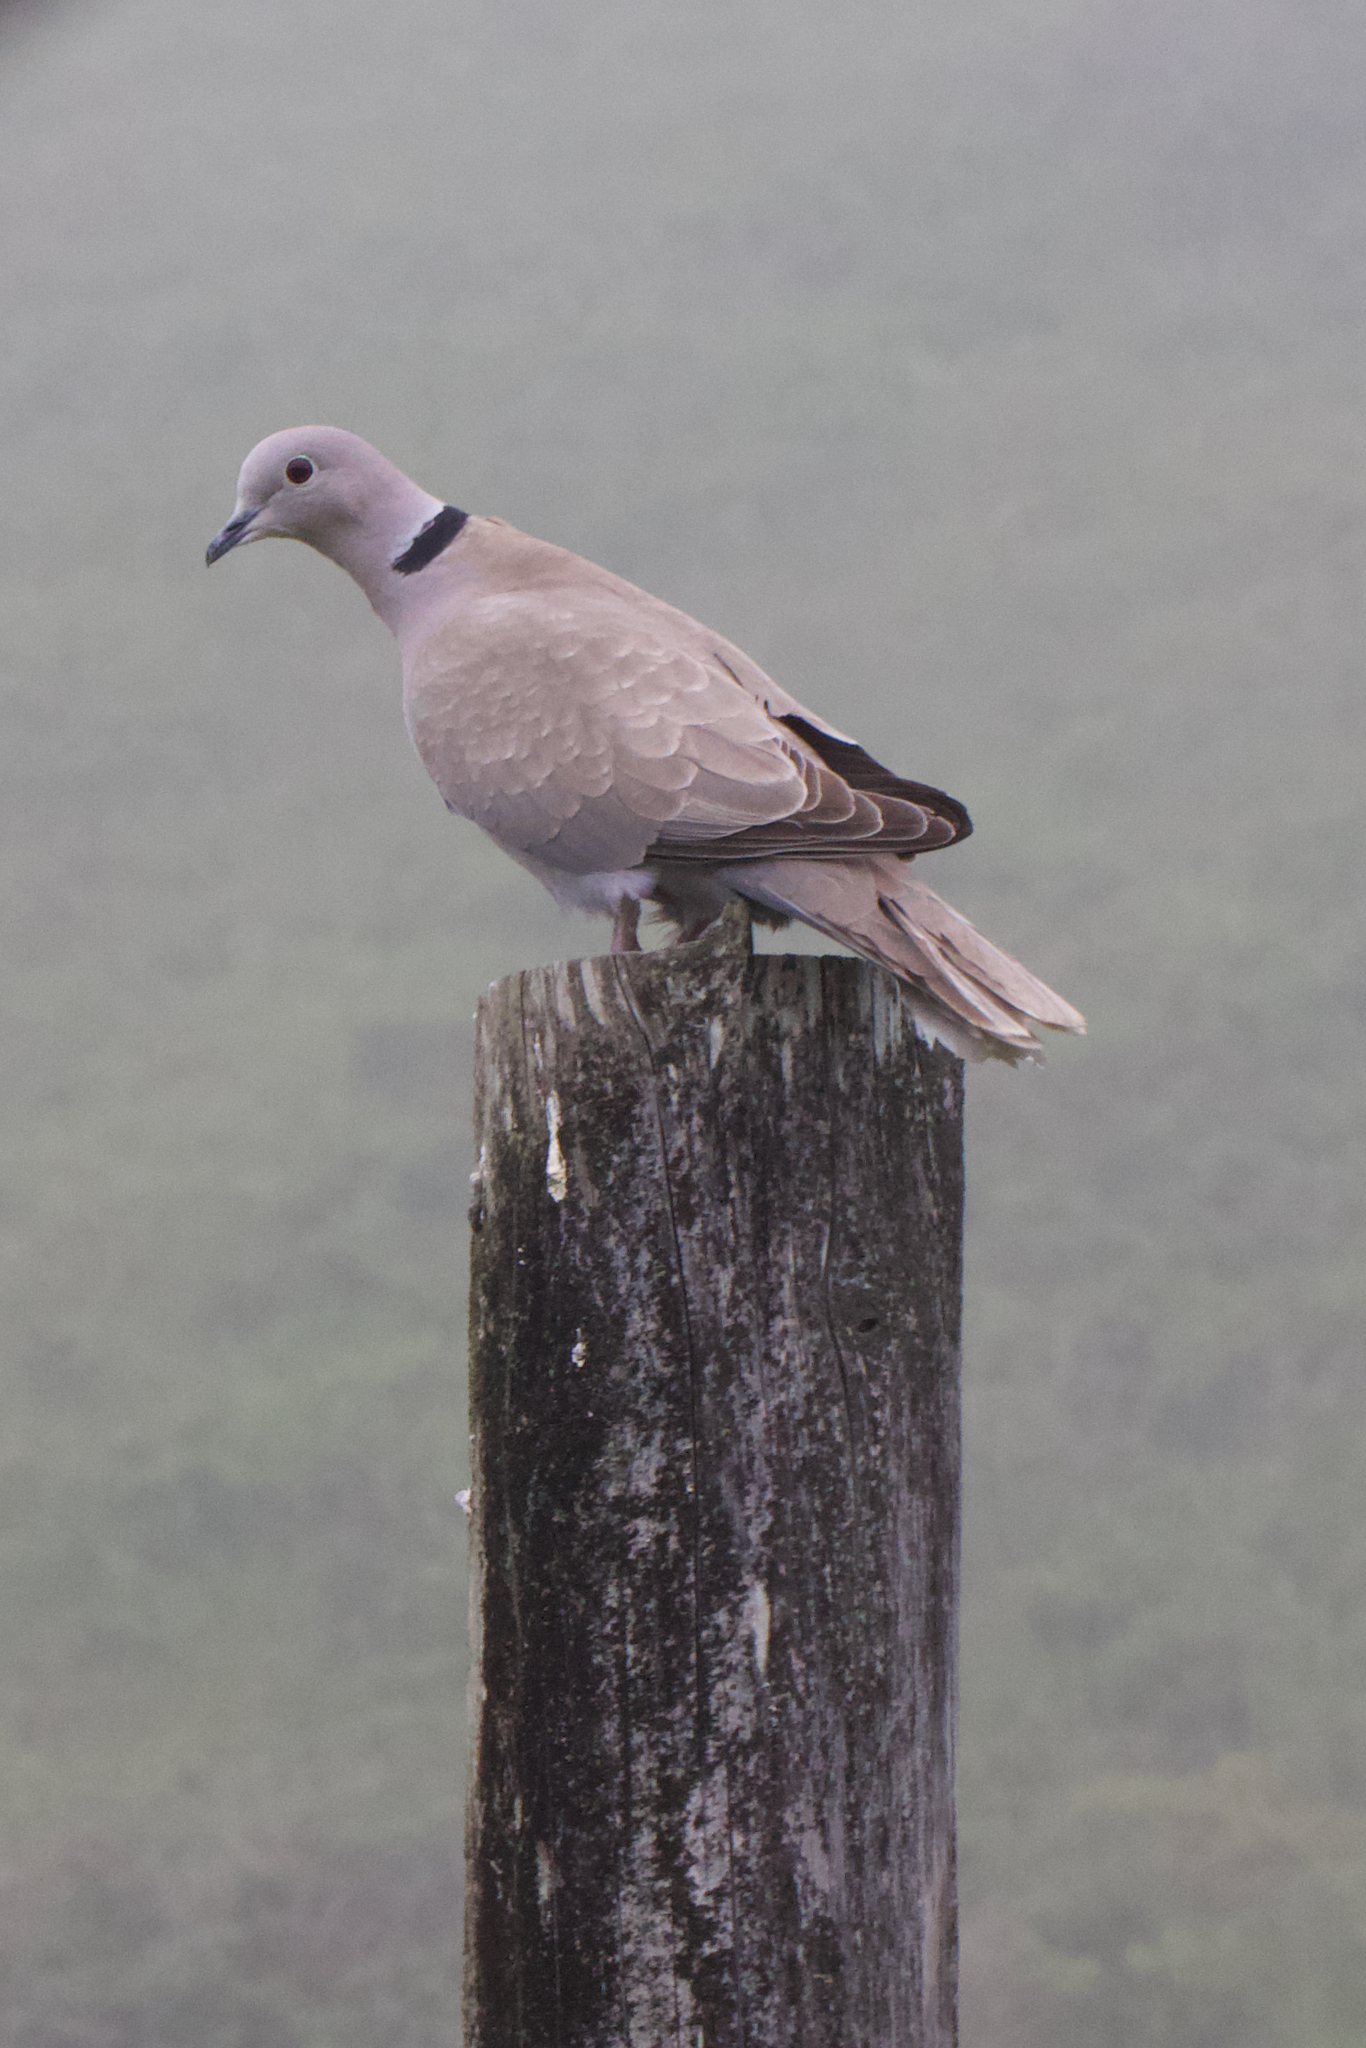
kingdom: Animalia
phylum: Chordata
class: Aves
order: Columbiformes
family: Columbidae
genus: Streptopelia
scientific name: Streptopelia decaocto
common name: Eurasian collared dove
